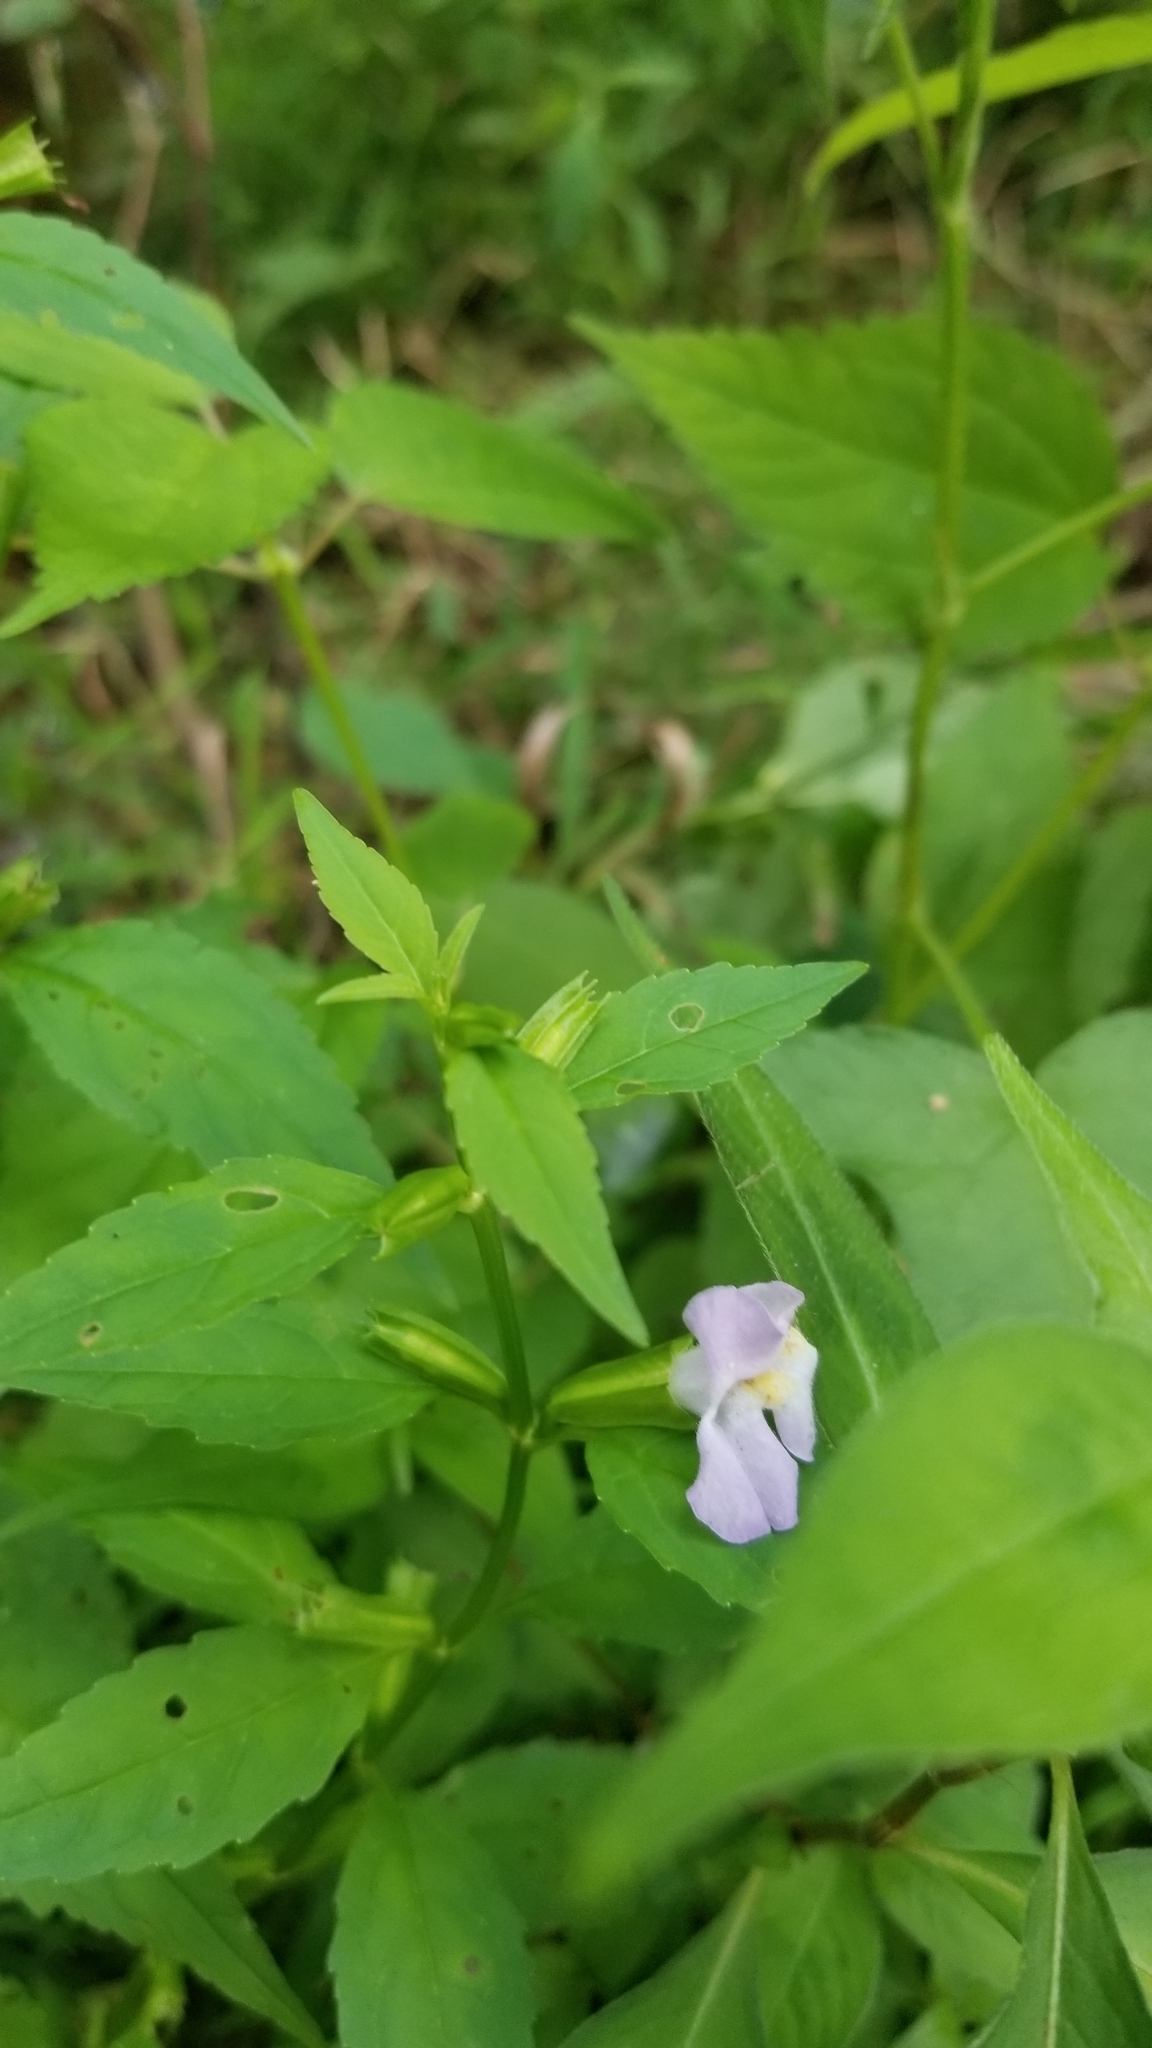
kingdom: Plantae
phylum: Tracheophyta
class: Magnoliopsida
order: Lamiales
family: Phrymaceae
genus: Mimulus
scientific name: Mimulus alatus
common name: Sharp-wing monkey-flower
